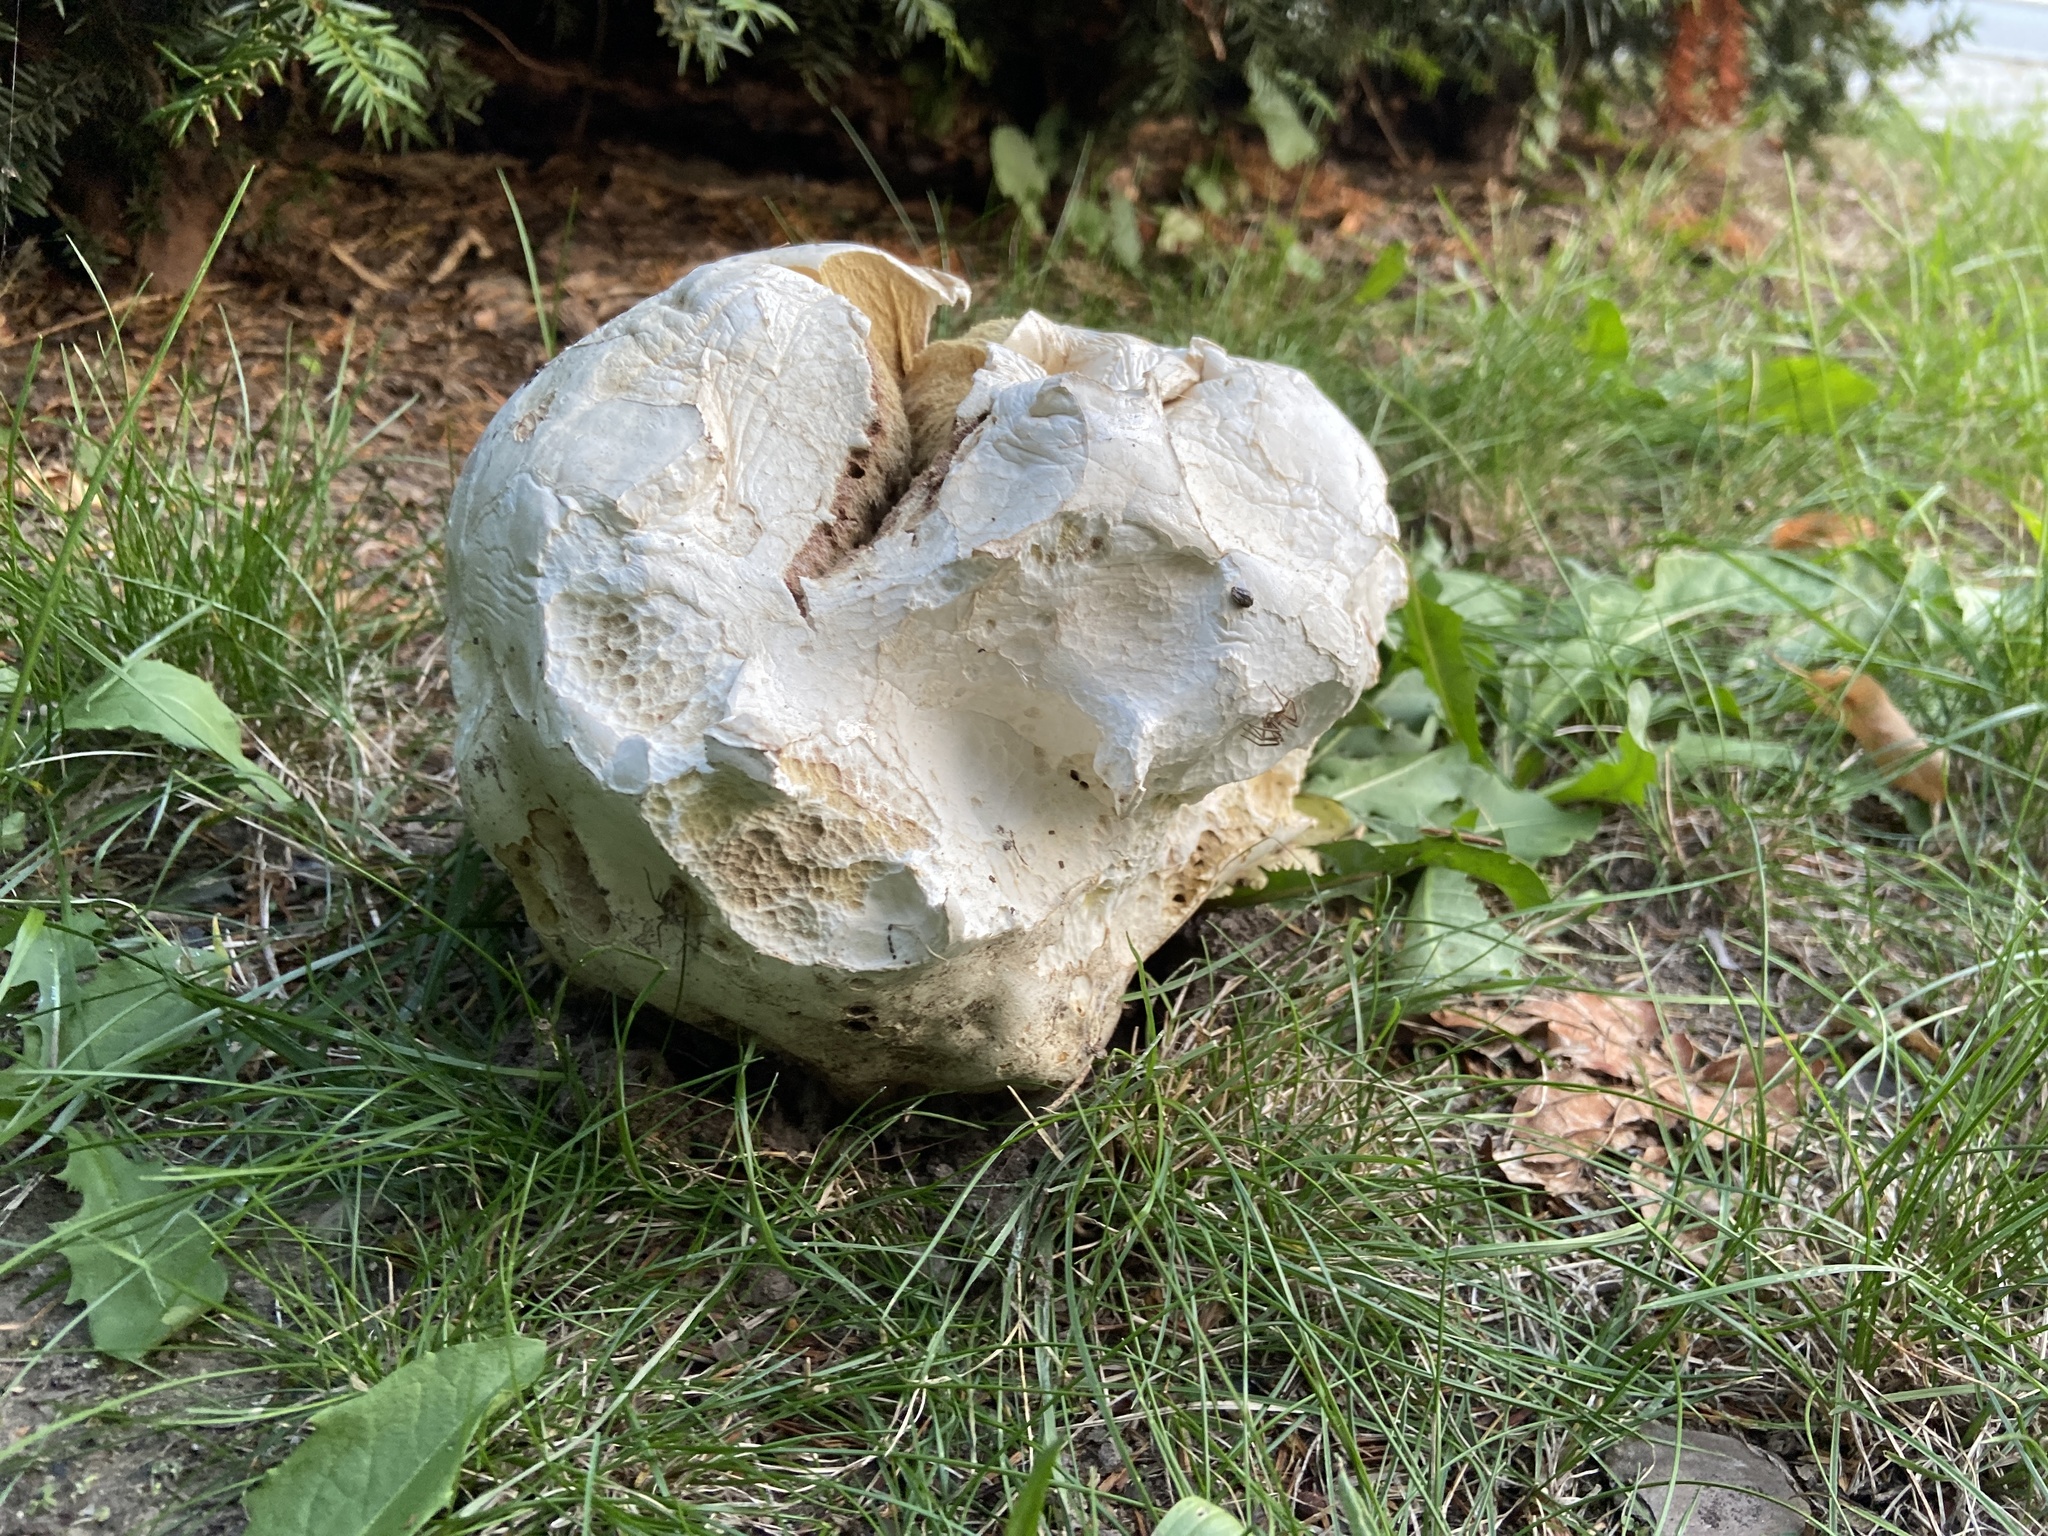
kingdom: Fungi
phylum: Basidiomycota
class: Agaricomycetes
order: Agaricales
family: Lycoperdaceae
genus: Calvatia
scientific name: Calvatia gigantea
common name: Giant puffball
